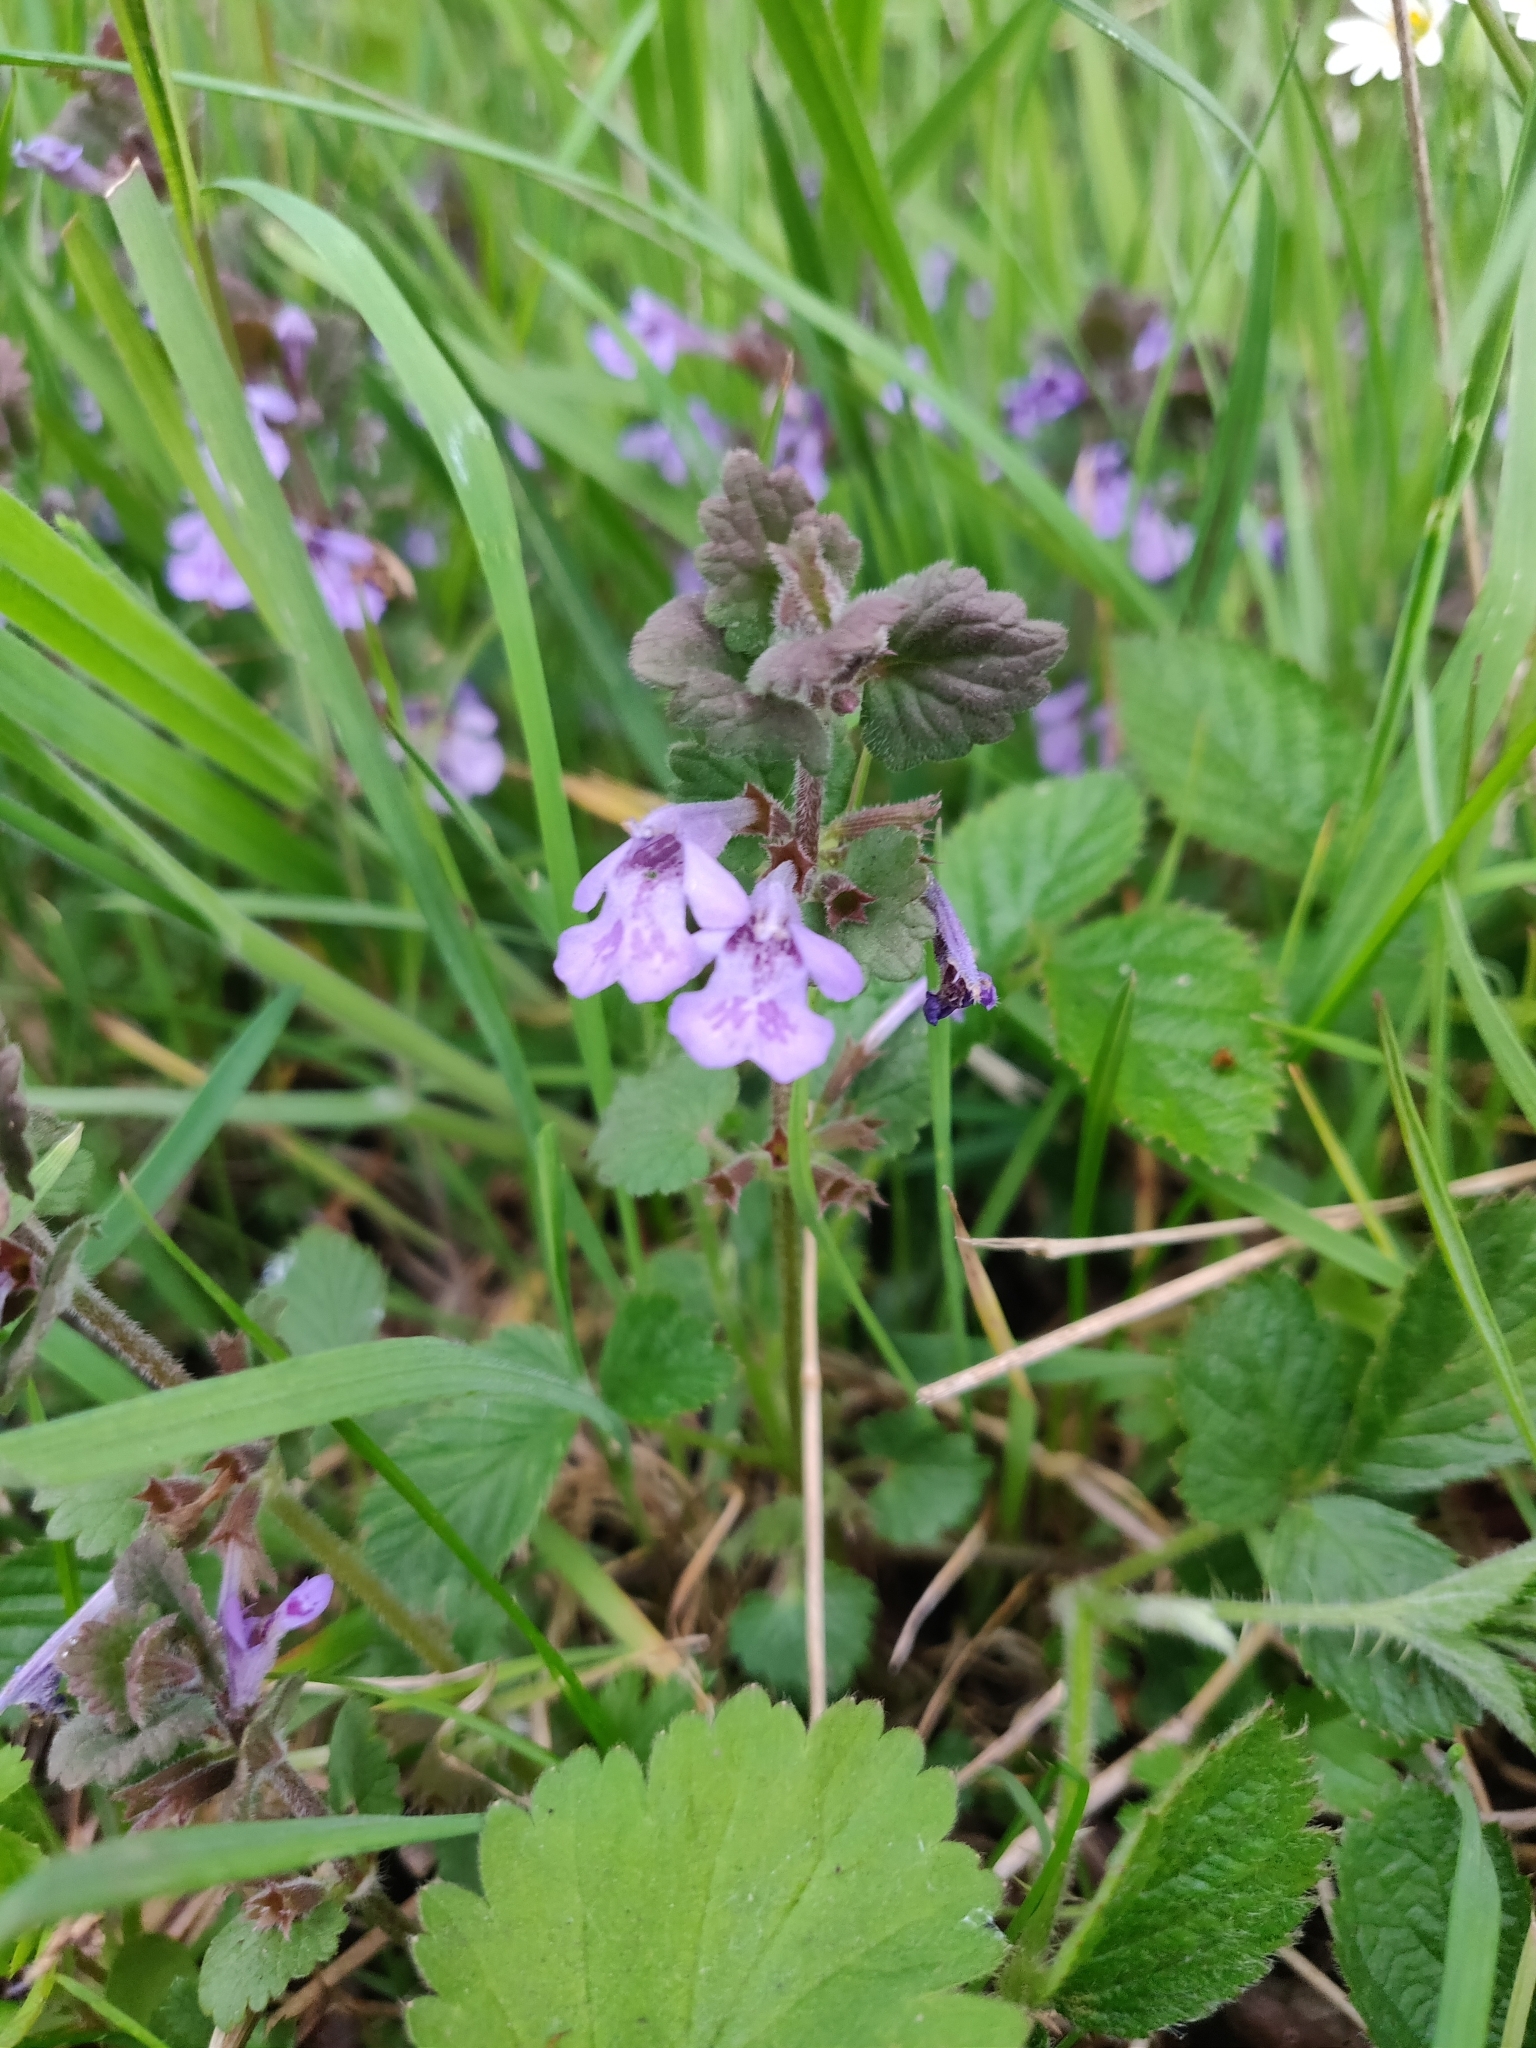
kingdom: Plantae
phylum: Tracheophyta
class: Magnoliopsida
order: Lamiales
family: Lamiaceae
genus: Glechoma
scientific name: Glechoma hederacea
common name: Ground ivy
